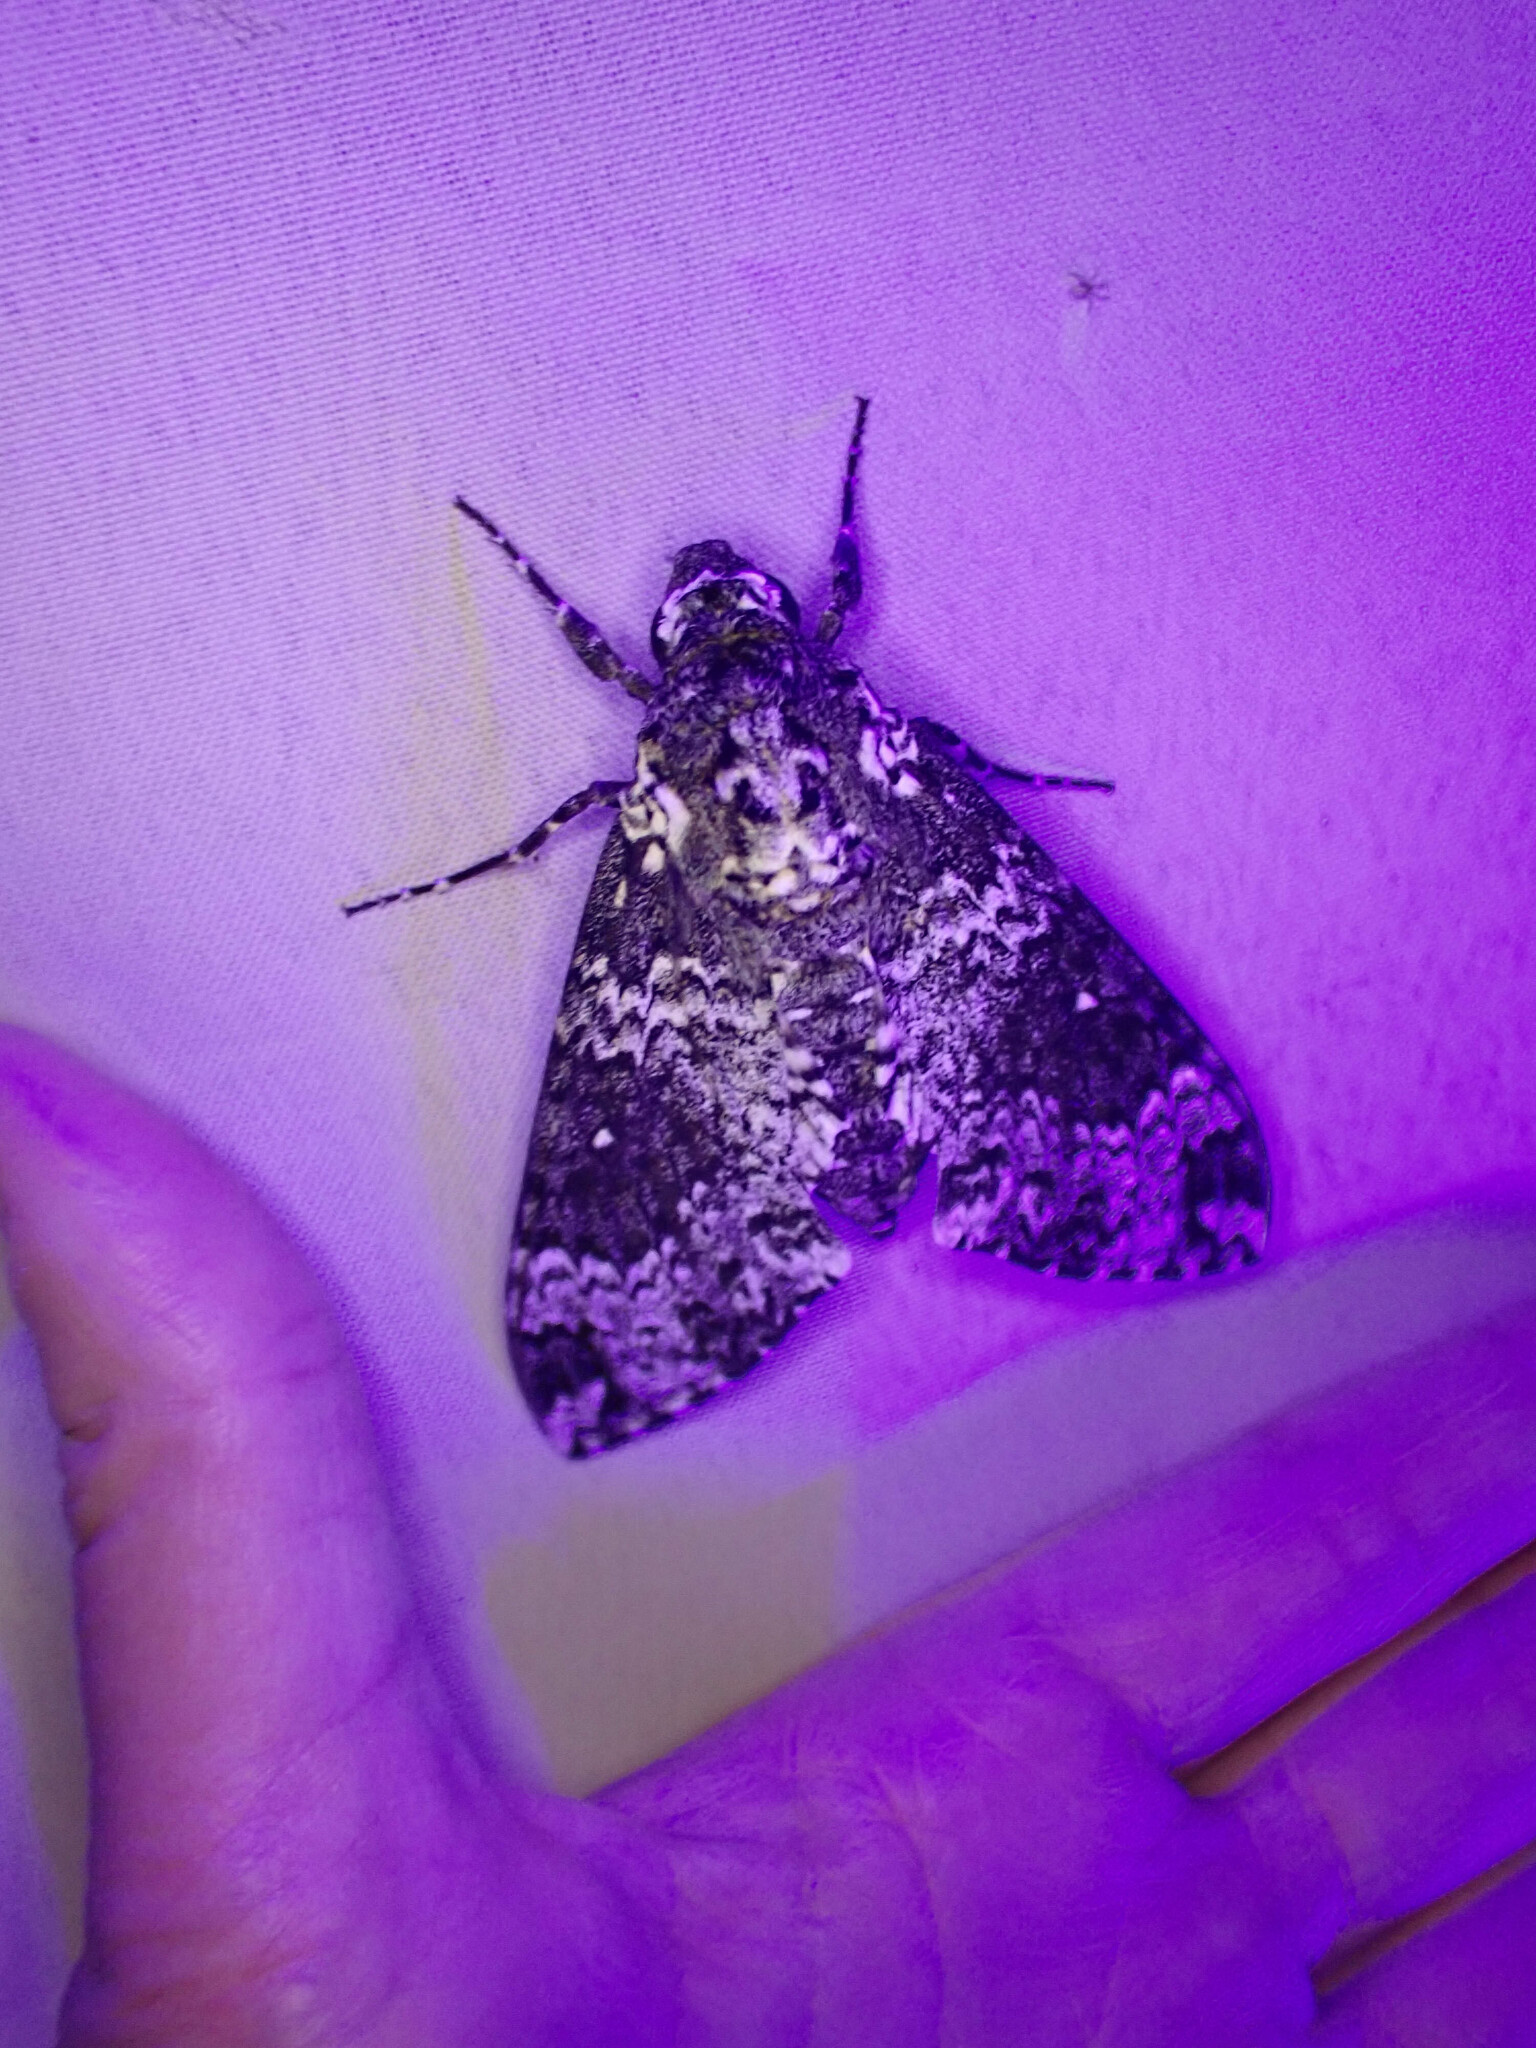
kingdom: Animalia
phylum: Arthropoda
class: Insecta
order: Lepidoptera
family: Sphingidae
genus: Manduca
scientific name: Manduca rustica
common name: Rustic sphinx
